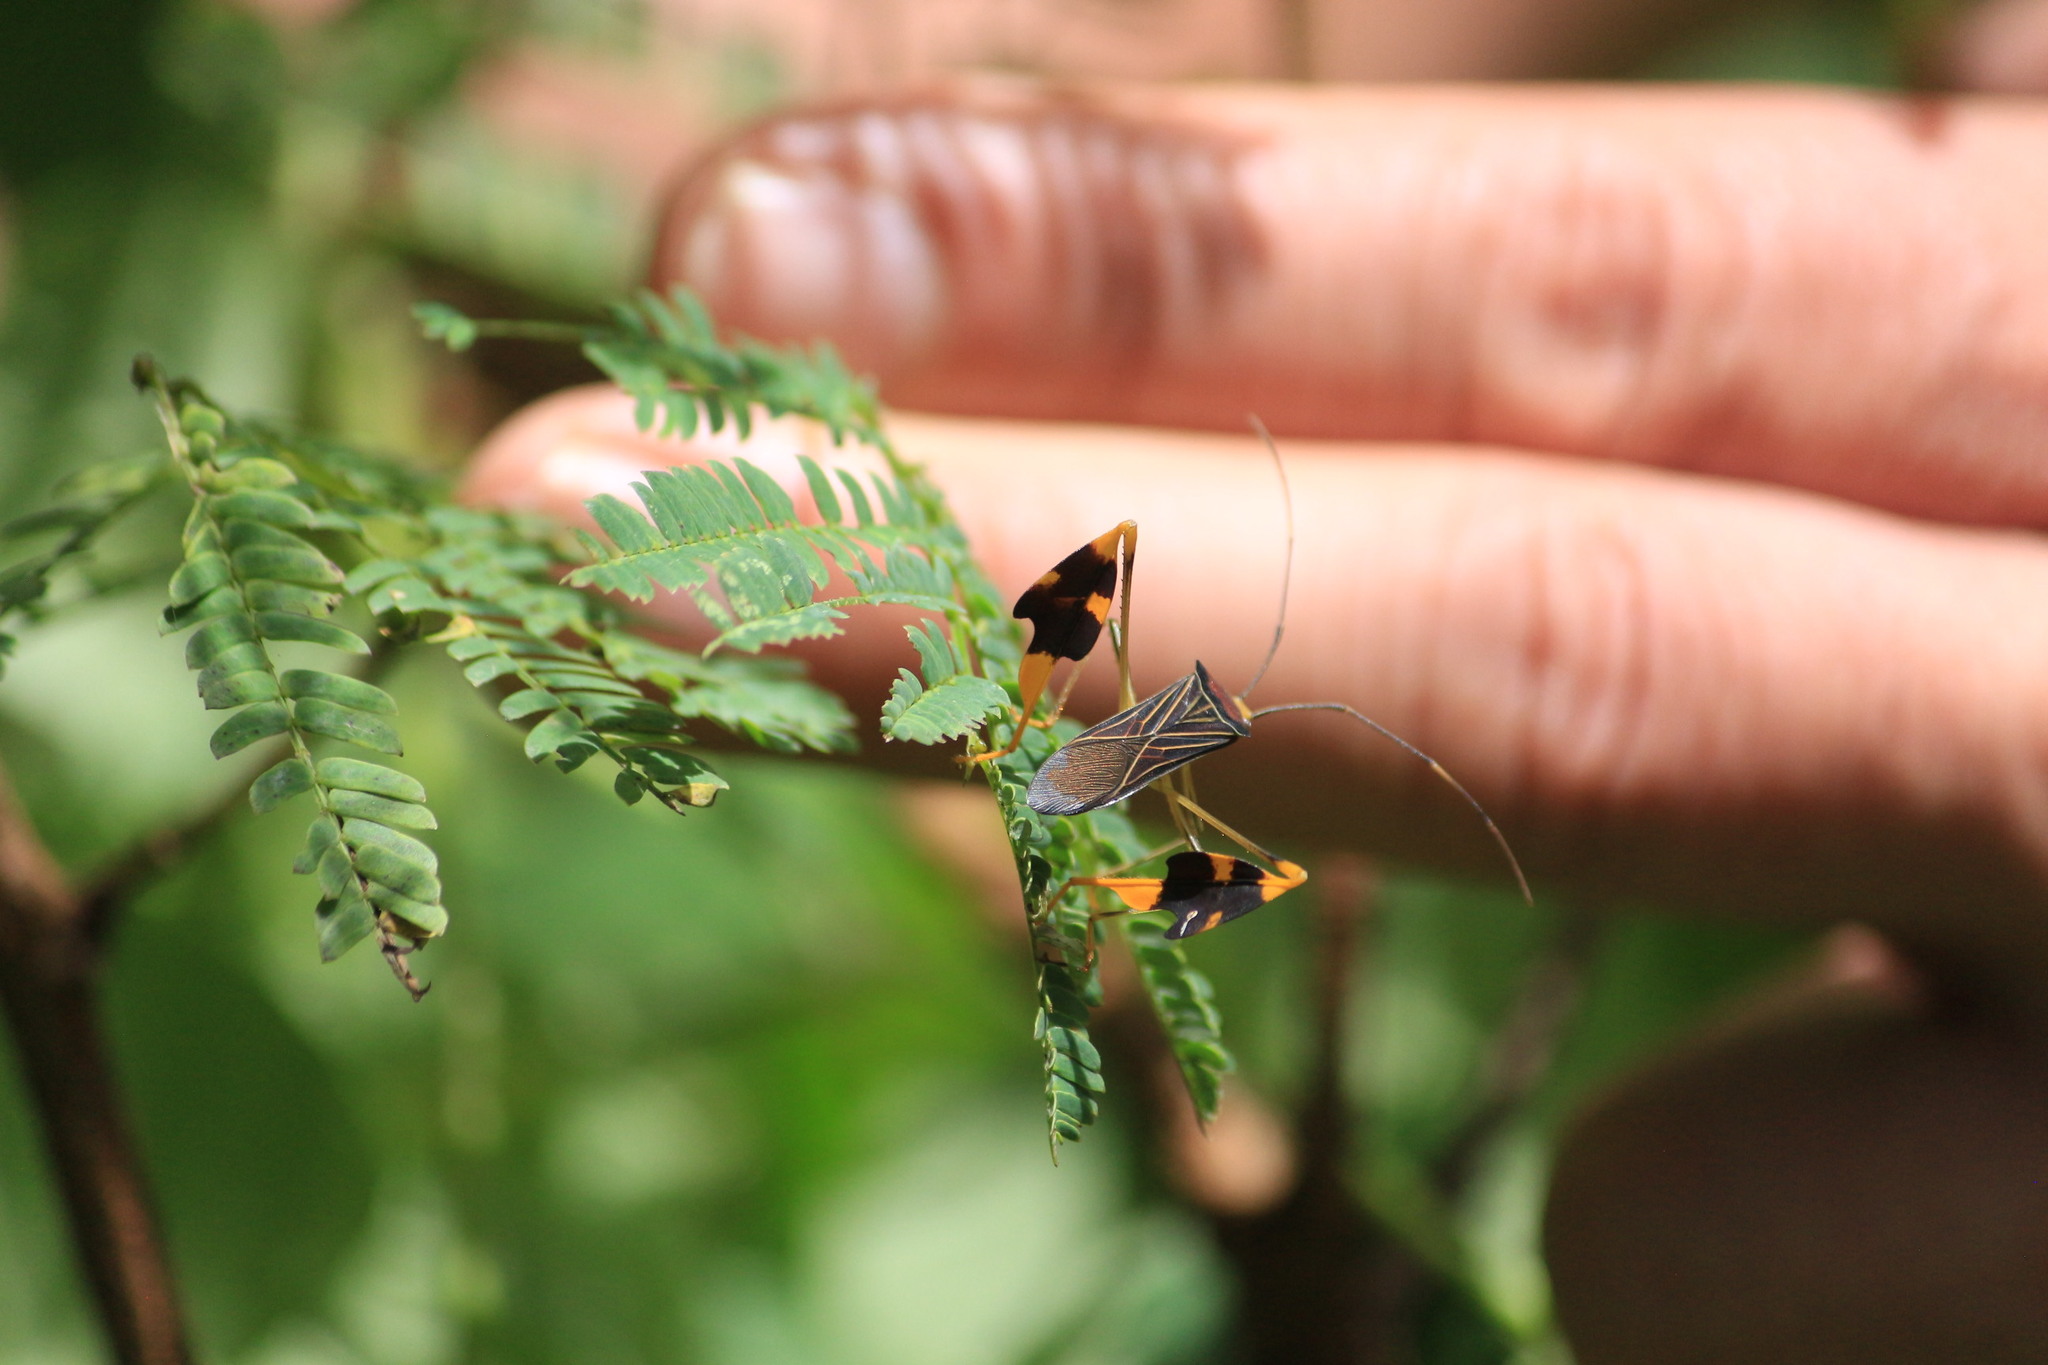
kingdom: Animalia
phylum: Arthropoda
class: Insecta
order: Hemiptera
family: Coreidae
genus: Anisoscelis
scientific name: Anisoscelis gradadius
